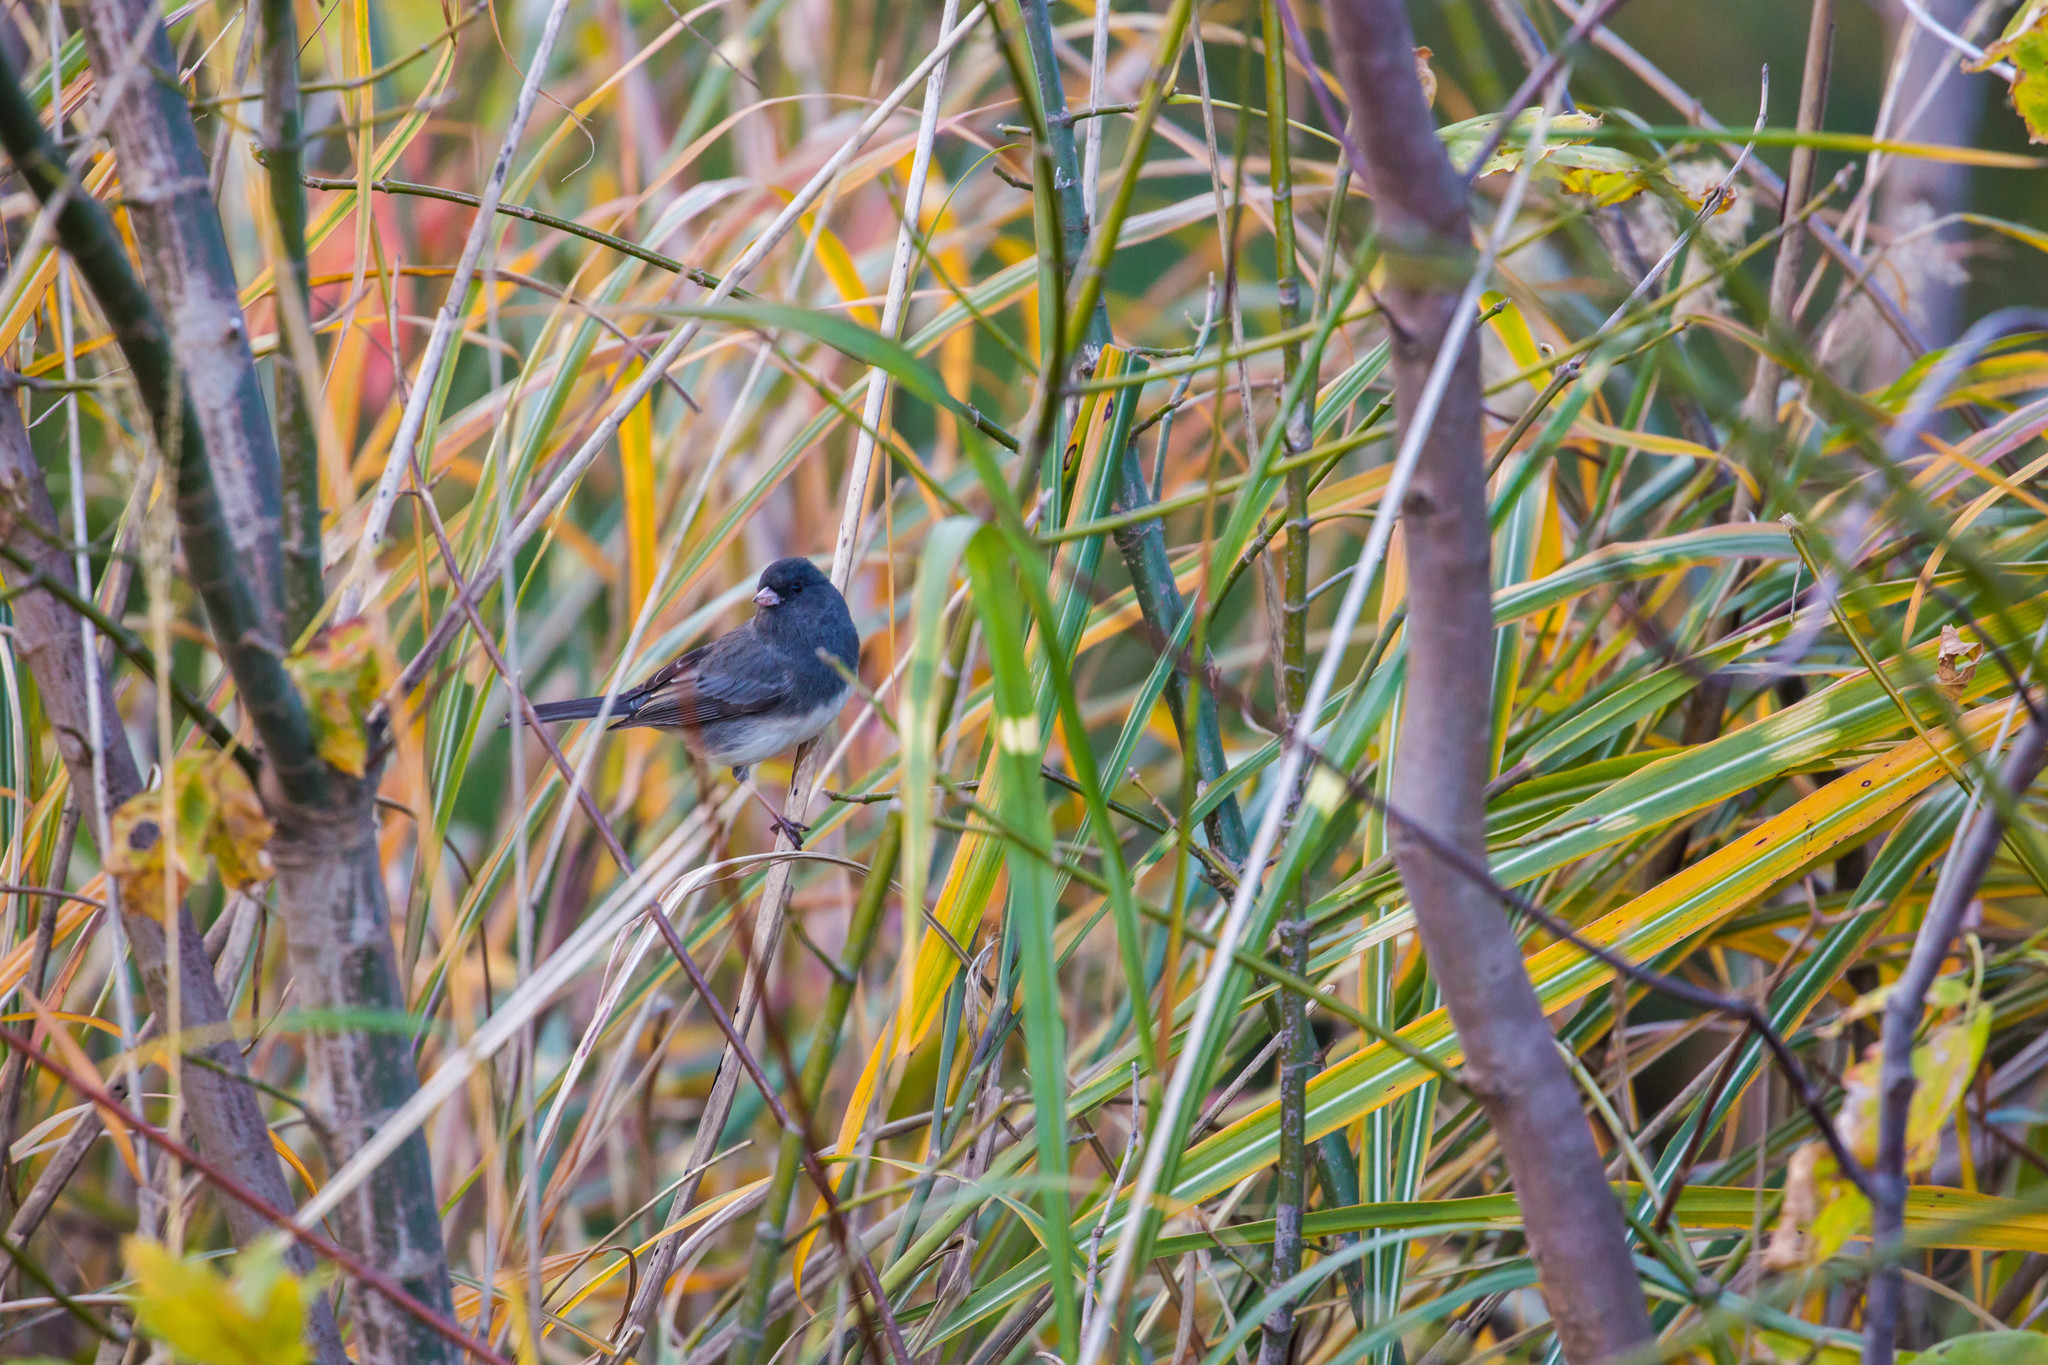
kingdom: Animalia
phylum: Chordata
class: Aves
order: Passeriformes
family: Passerellidae
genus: Junco
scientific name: Junco hyemalis
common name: Dark-eyed junco
